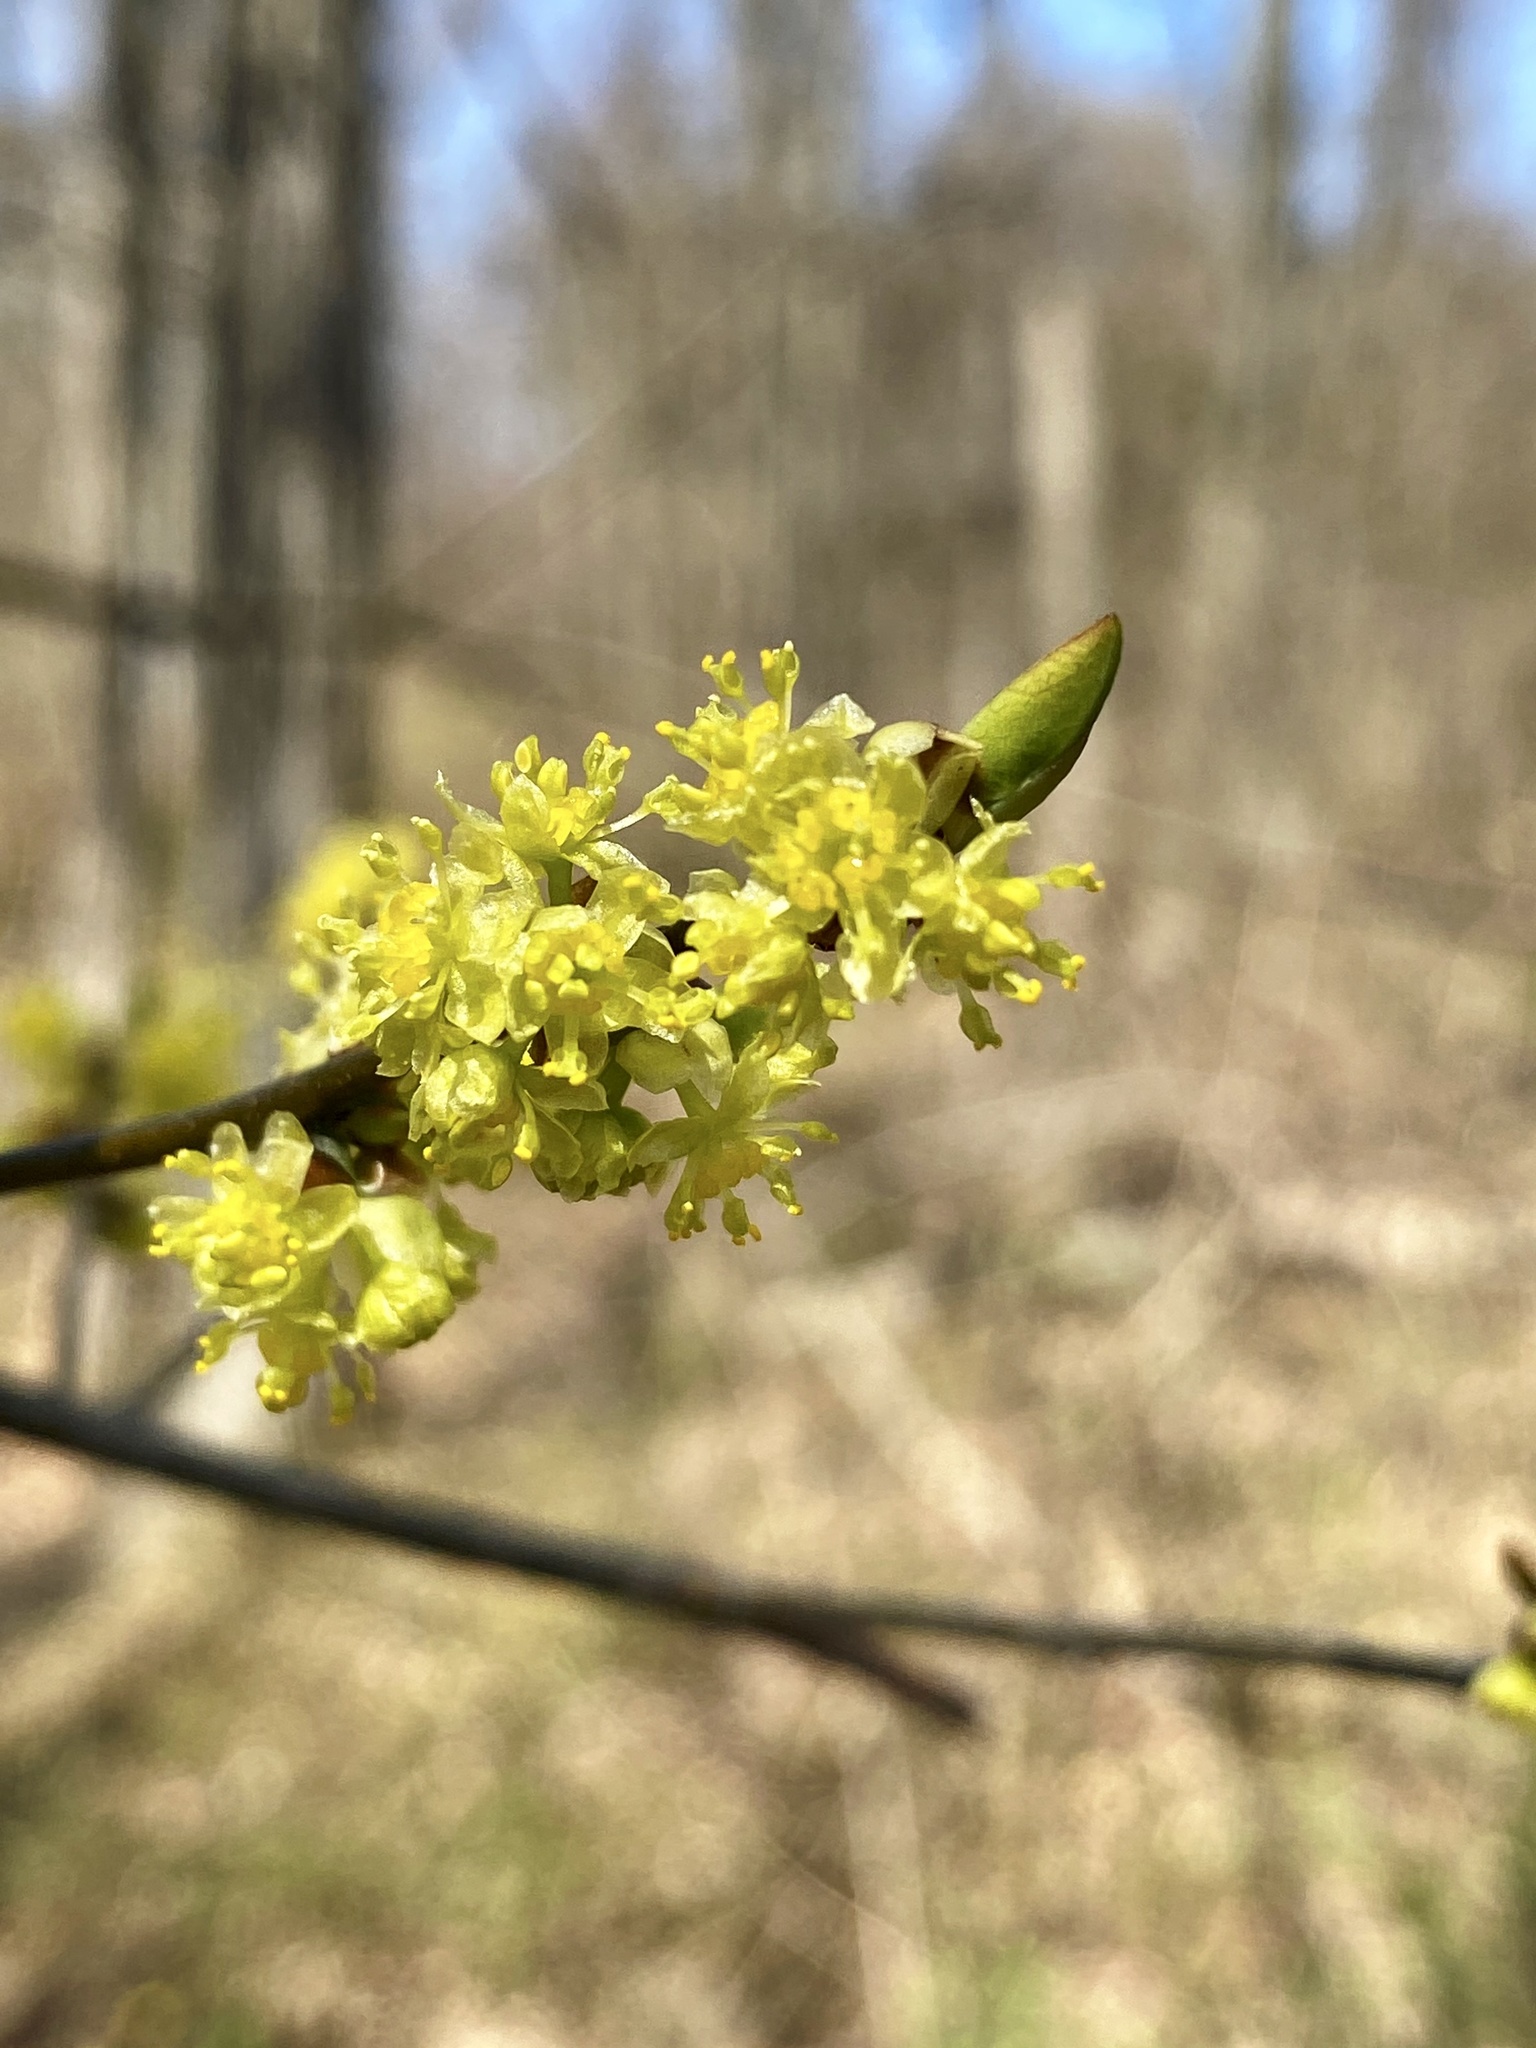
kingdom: Plantae
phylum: Tracheophyta
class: Magnoliopsida
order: Laurales
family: Lauraceae
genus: Lindera
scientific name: Lindera benzoin
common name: Spicebush
